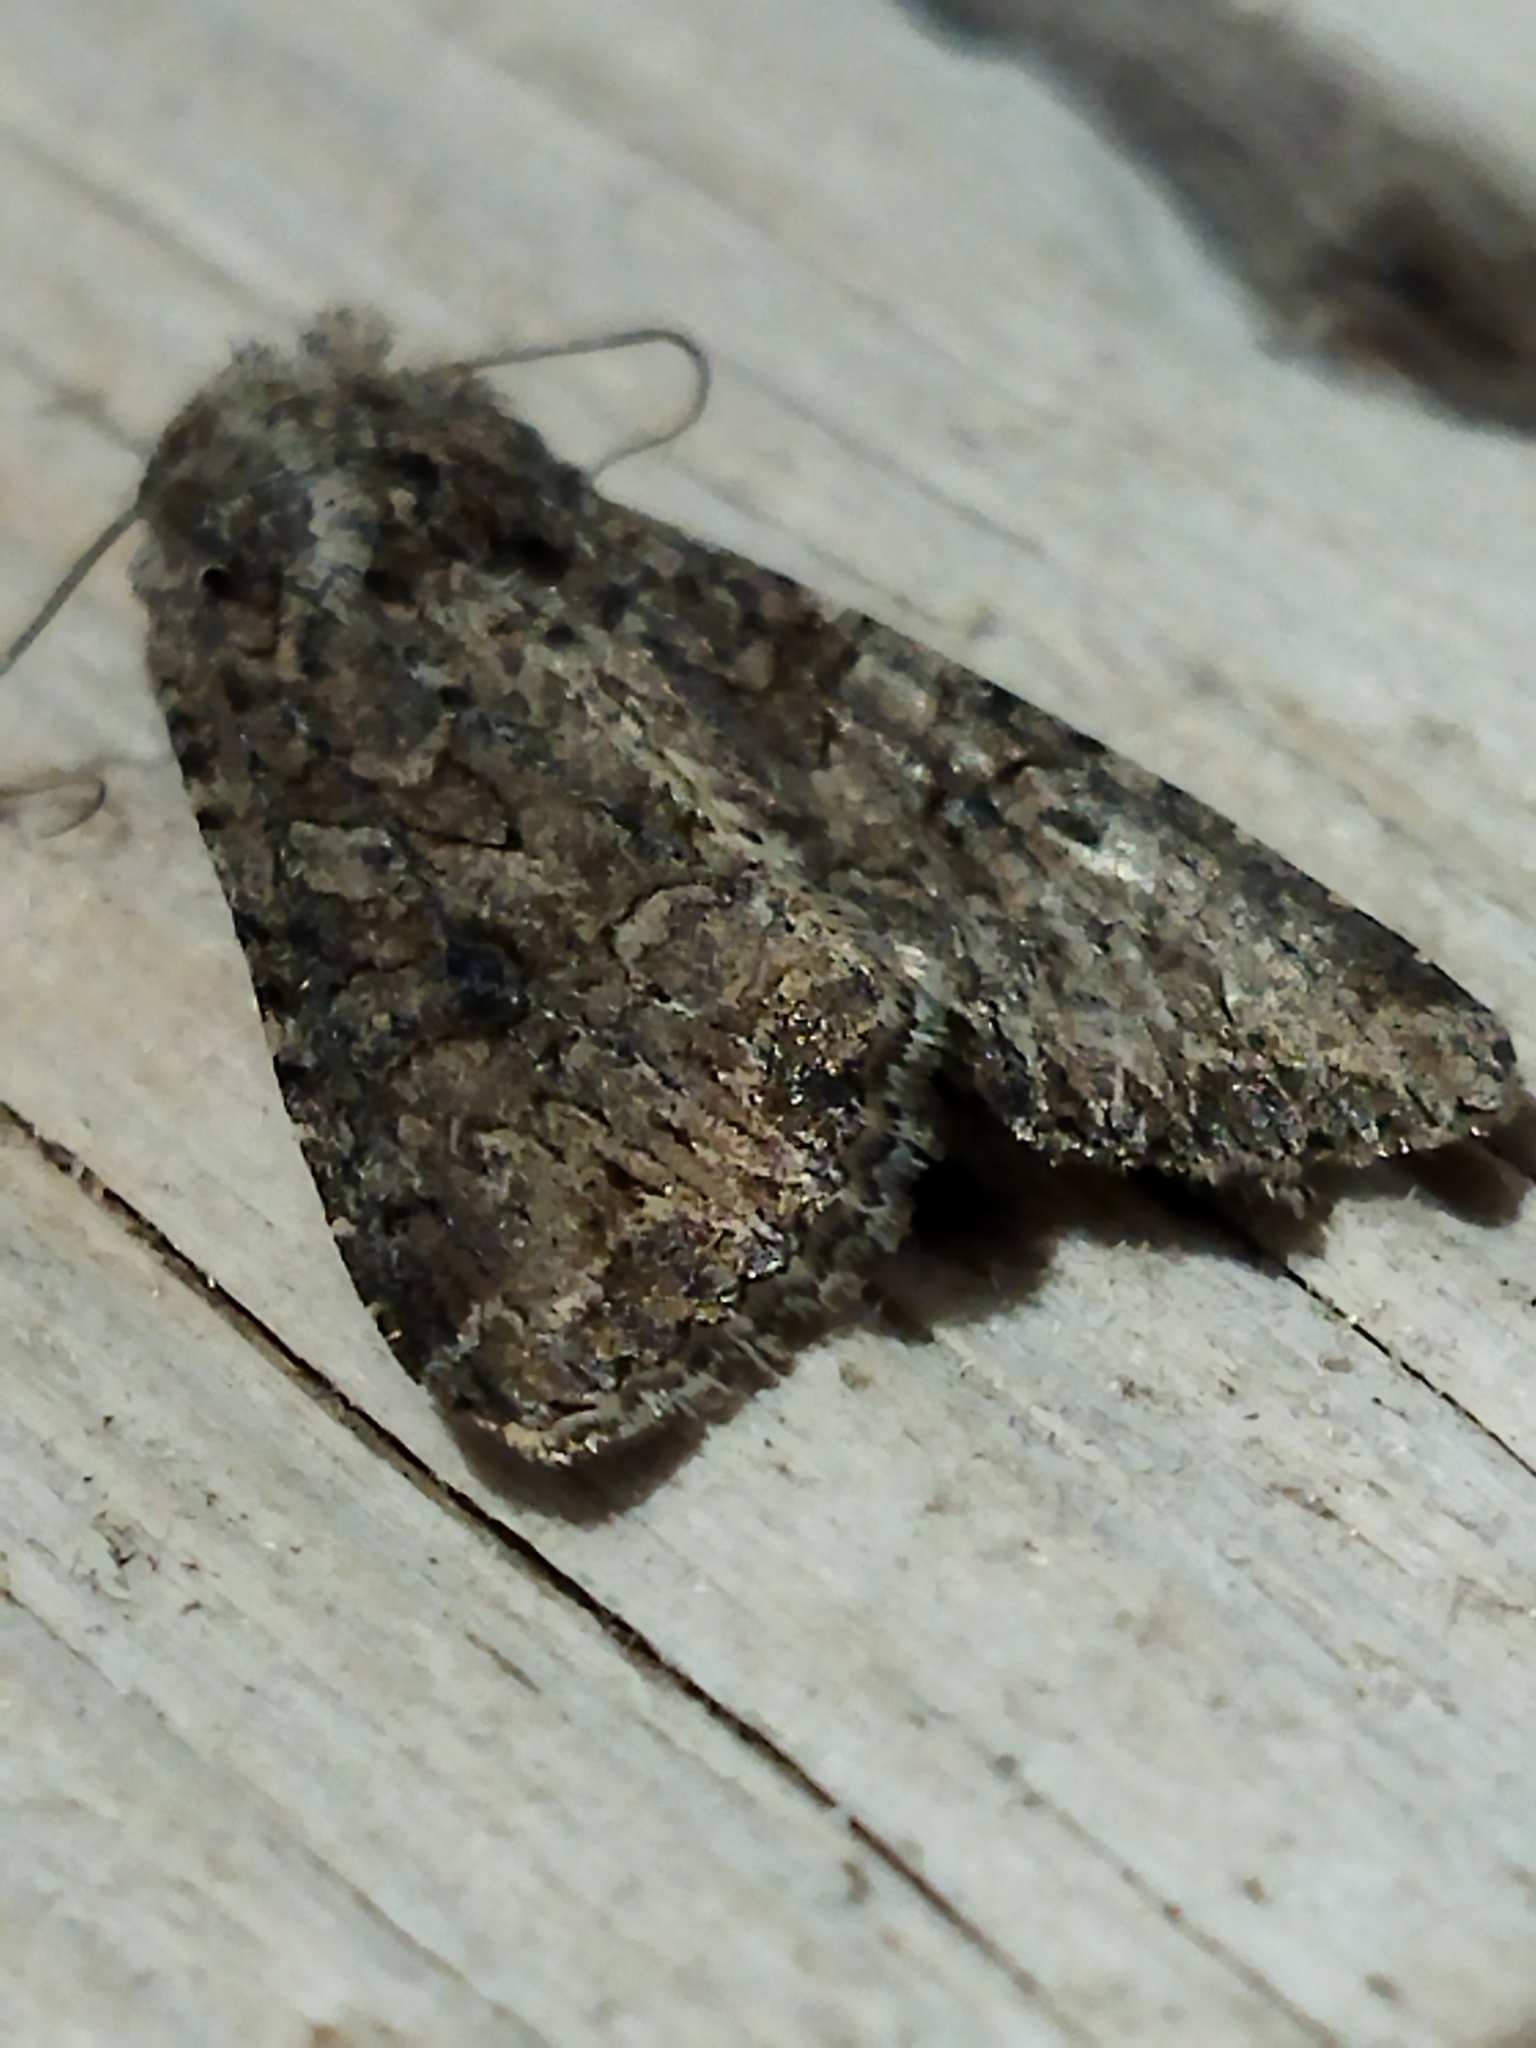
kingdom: Animalia
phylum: Arthropoda
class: Insecta
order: Lepidoptera
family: Noctuidae
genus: Anarta
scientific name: Anarta trifolii
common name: Clover cutworm moth
